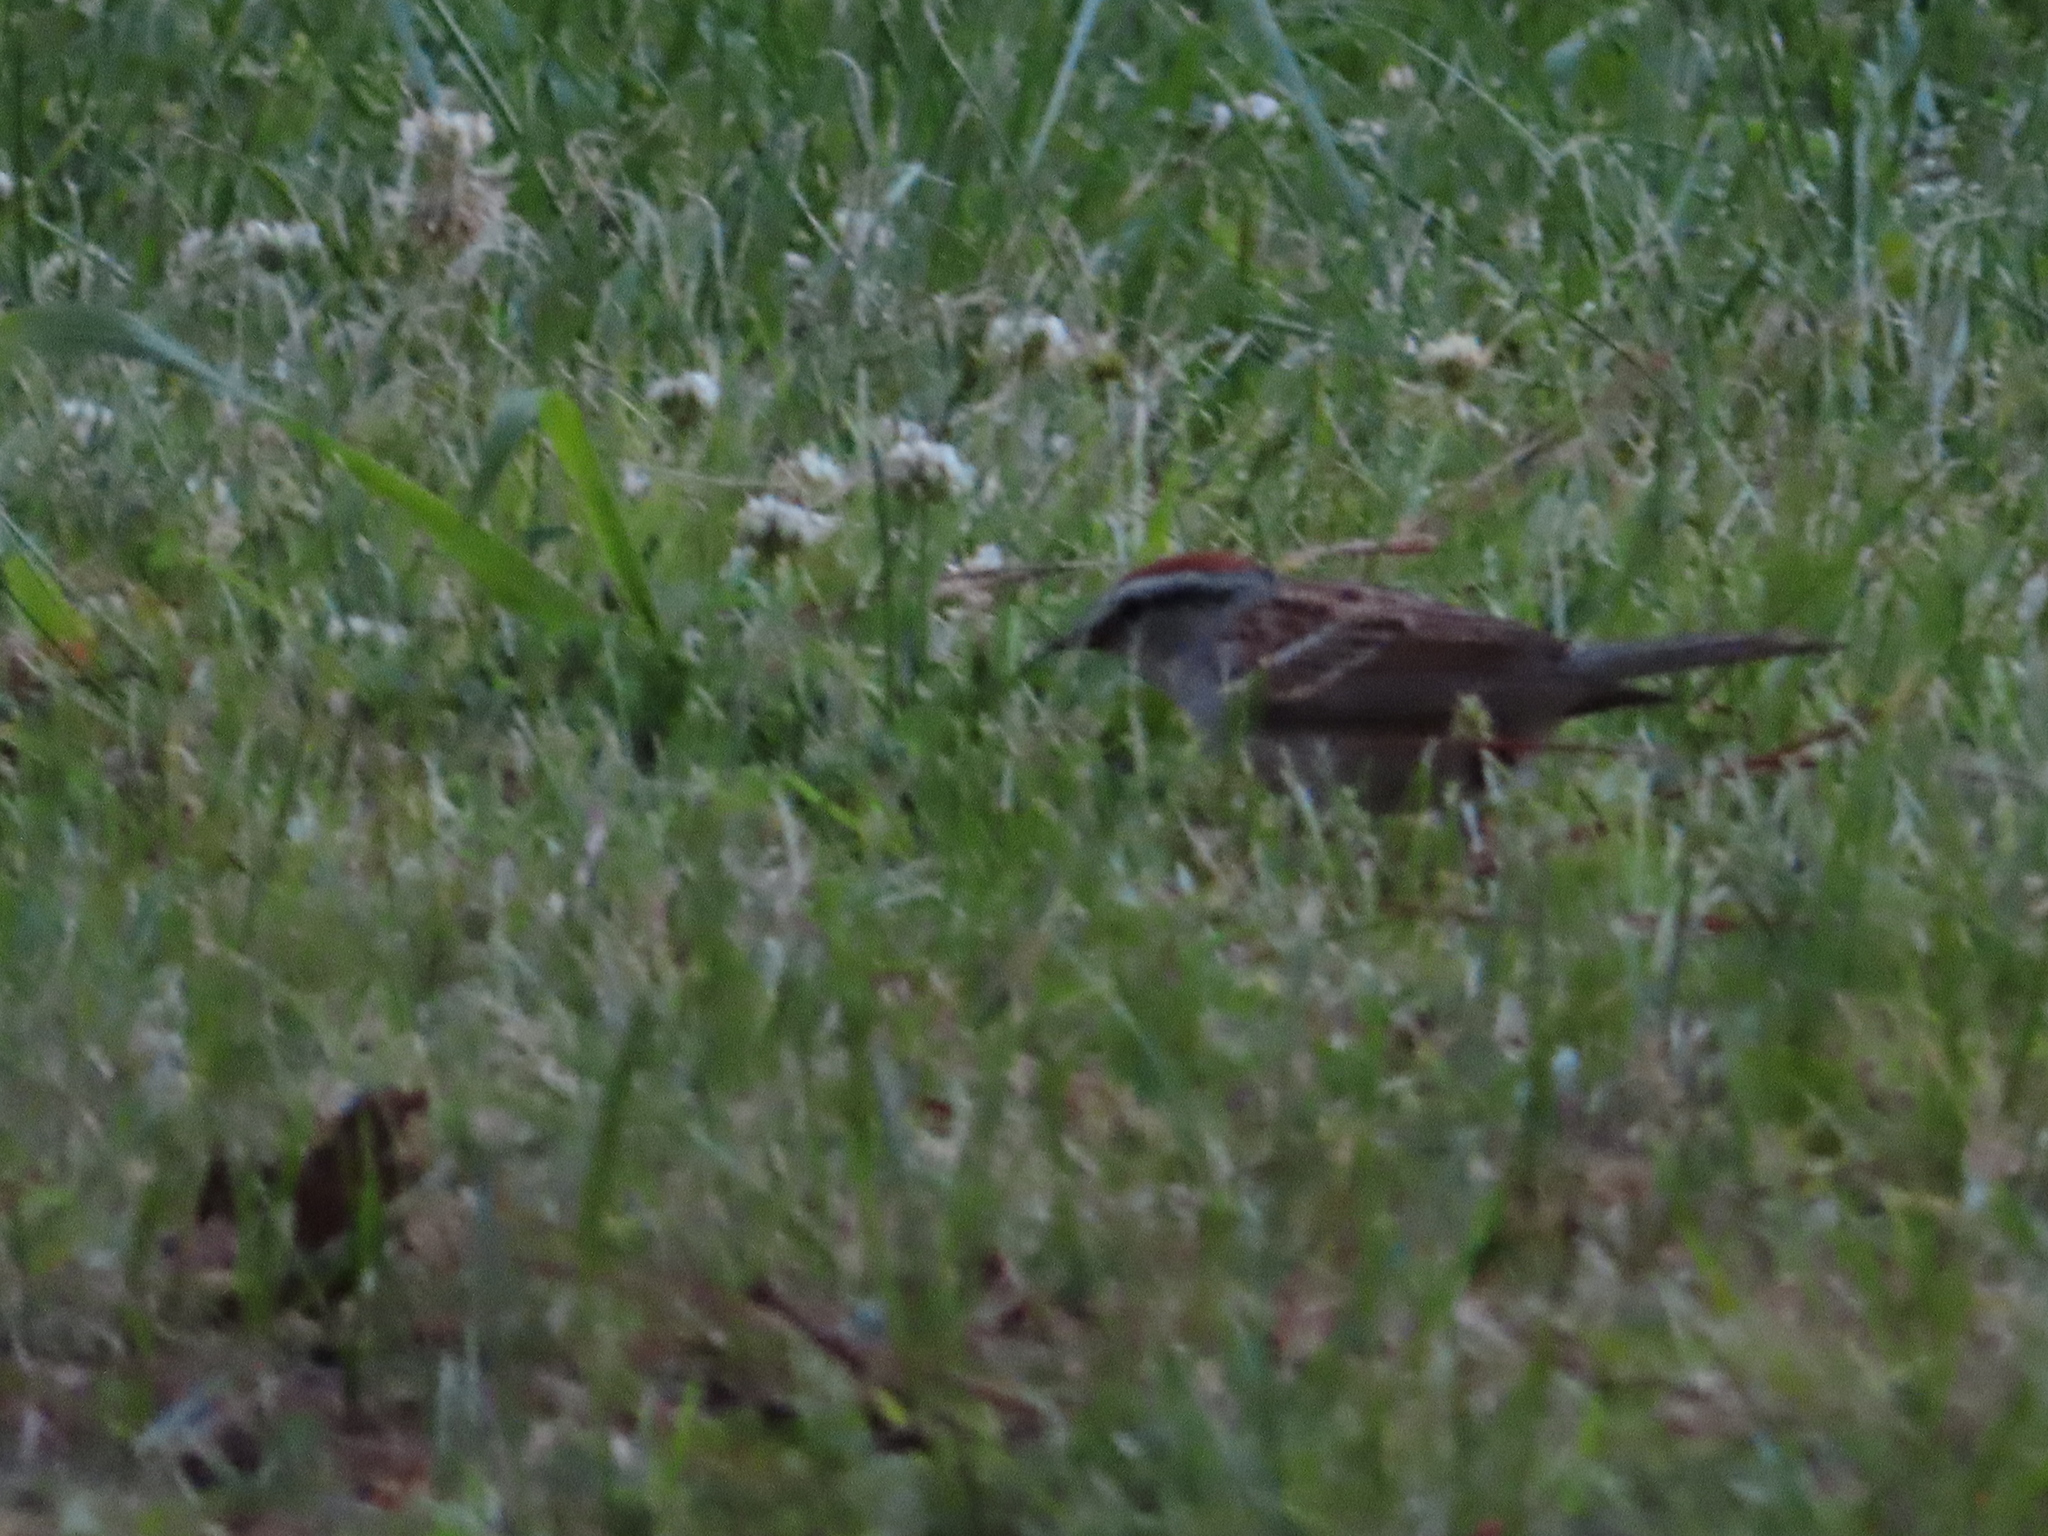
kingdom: Animalia
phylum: Chordata
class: Aves
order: Passeriformes
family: Passerellidae
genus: Spizella
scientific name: Spizella passerina
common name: Chipping sparrow
